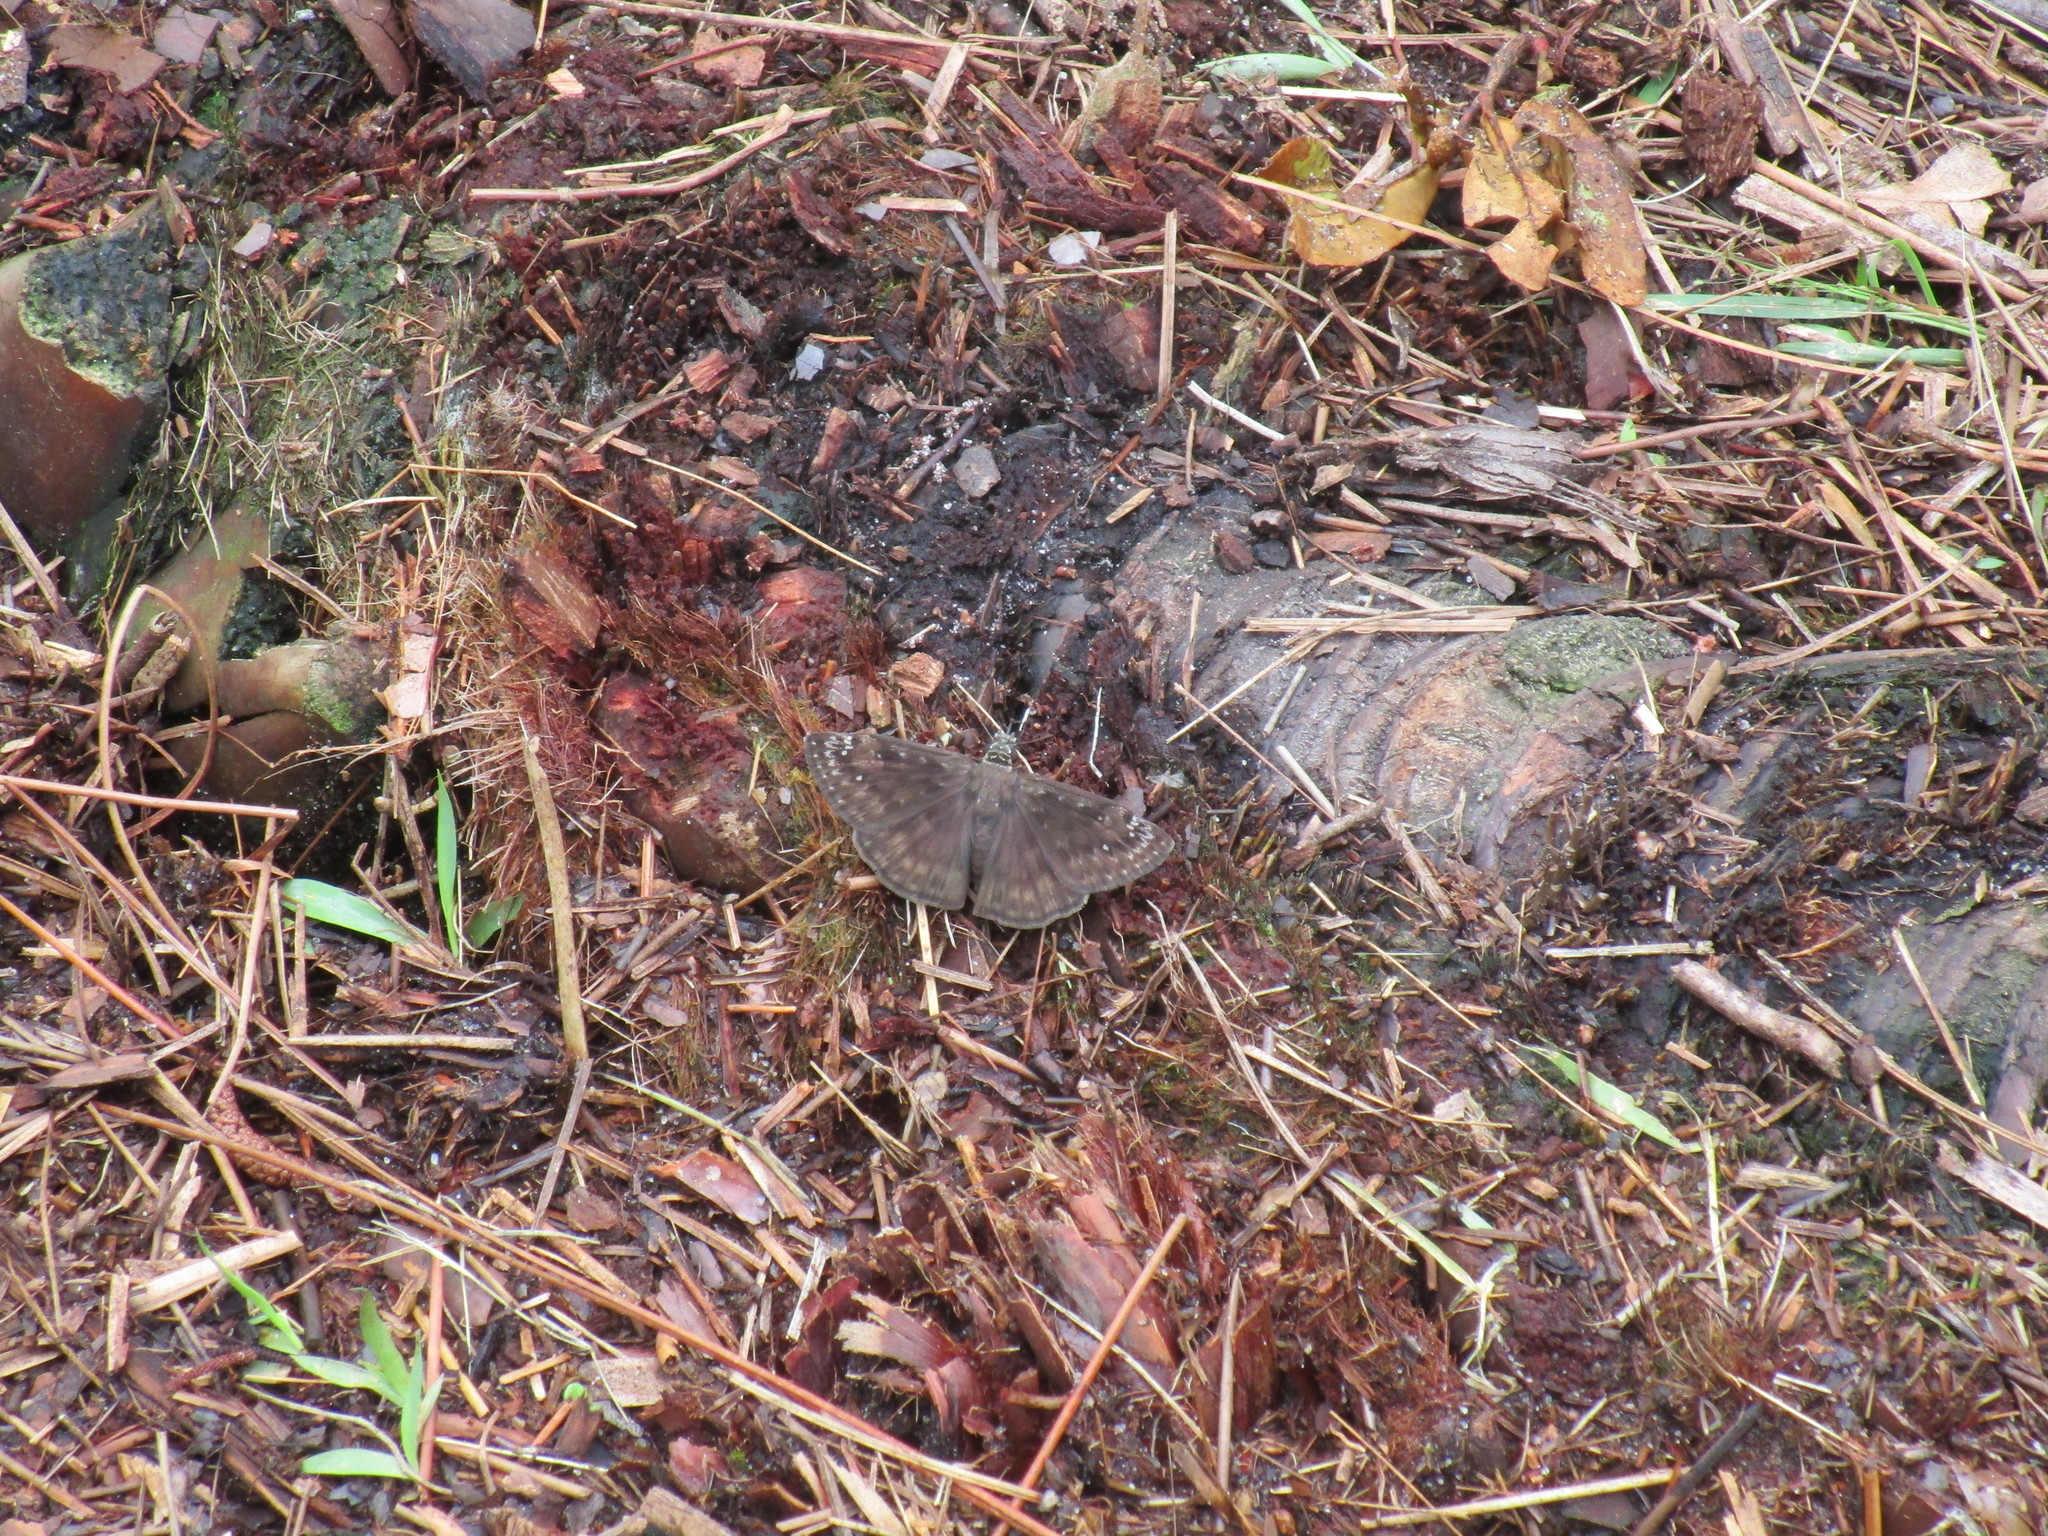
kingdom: Animalia
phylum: Arthropoda
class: Insecta
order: Lepidoptera
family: Hesperiidae
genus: Erynnis
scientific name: Erynnis horatius
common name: Horace's duskywing
